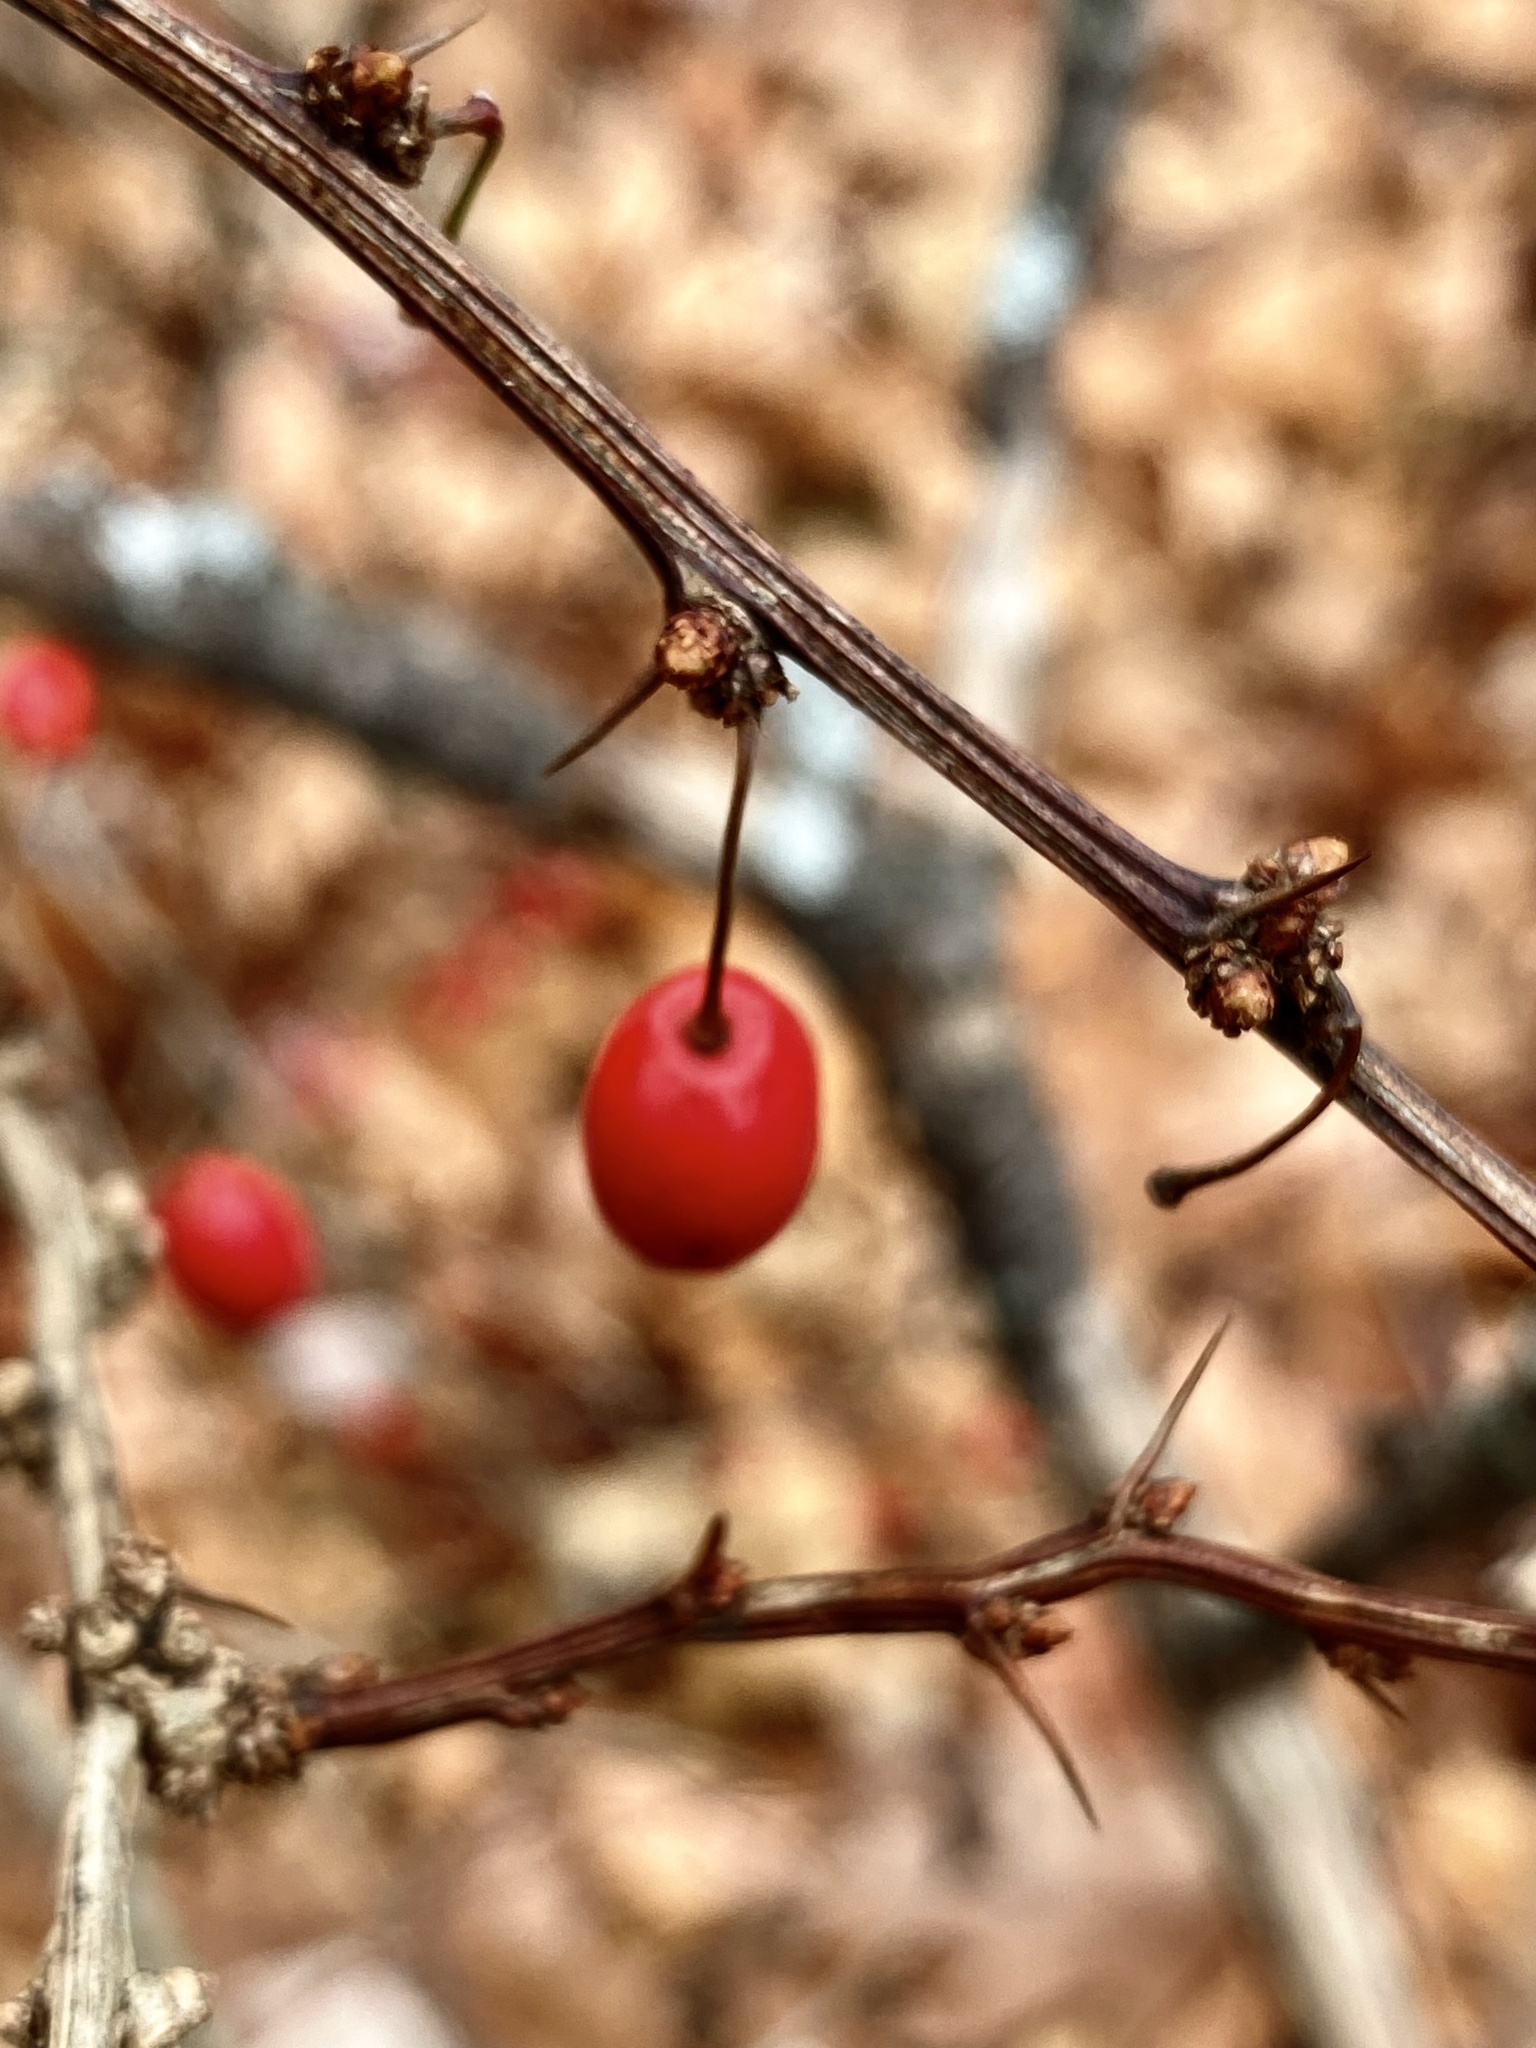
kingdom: Plantae
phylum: Tracheophyta
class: Magnoliopsida
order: Ranunculales
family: Berberidaceae
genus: Berberis
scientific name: Berberis thunbergii
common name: Japanese barberry
